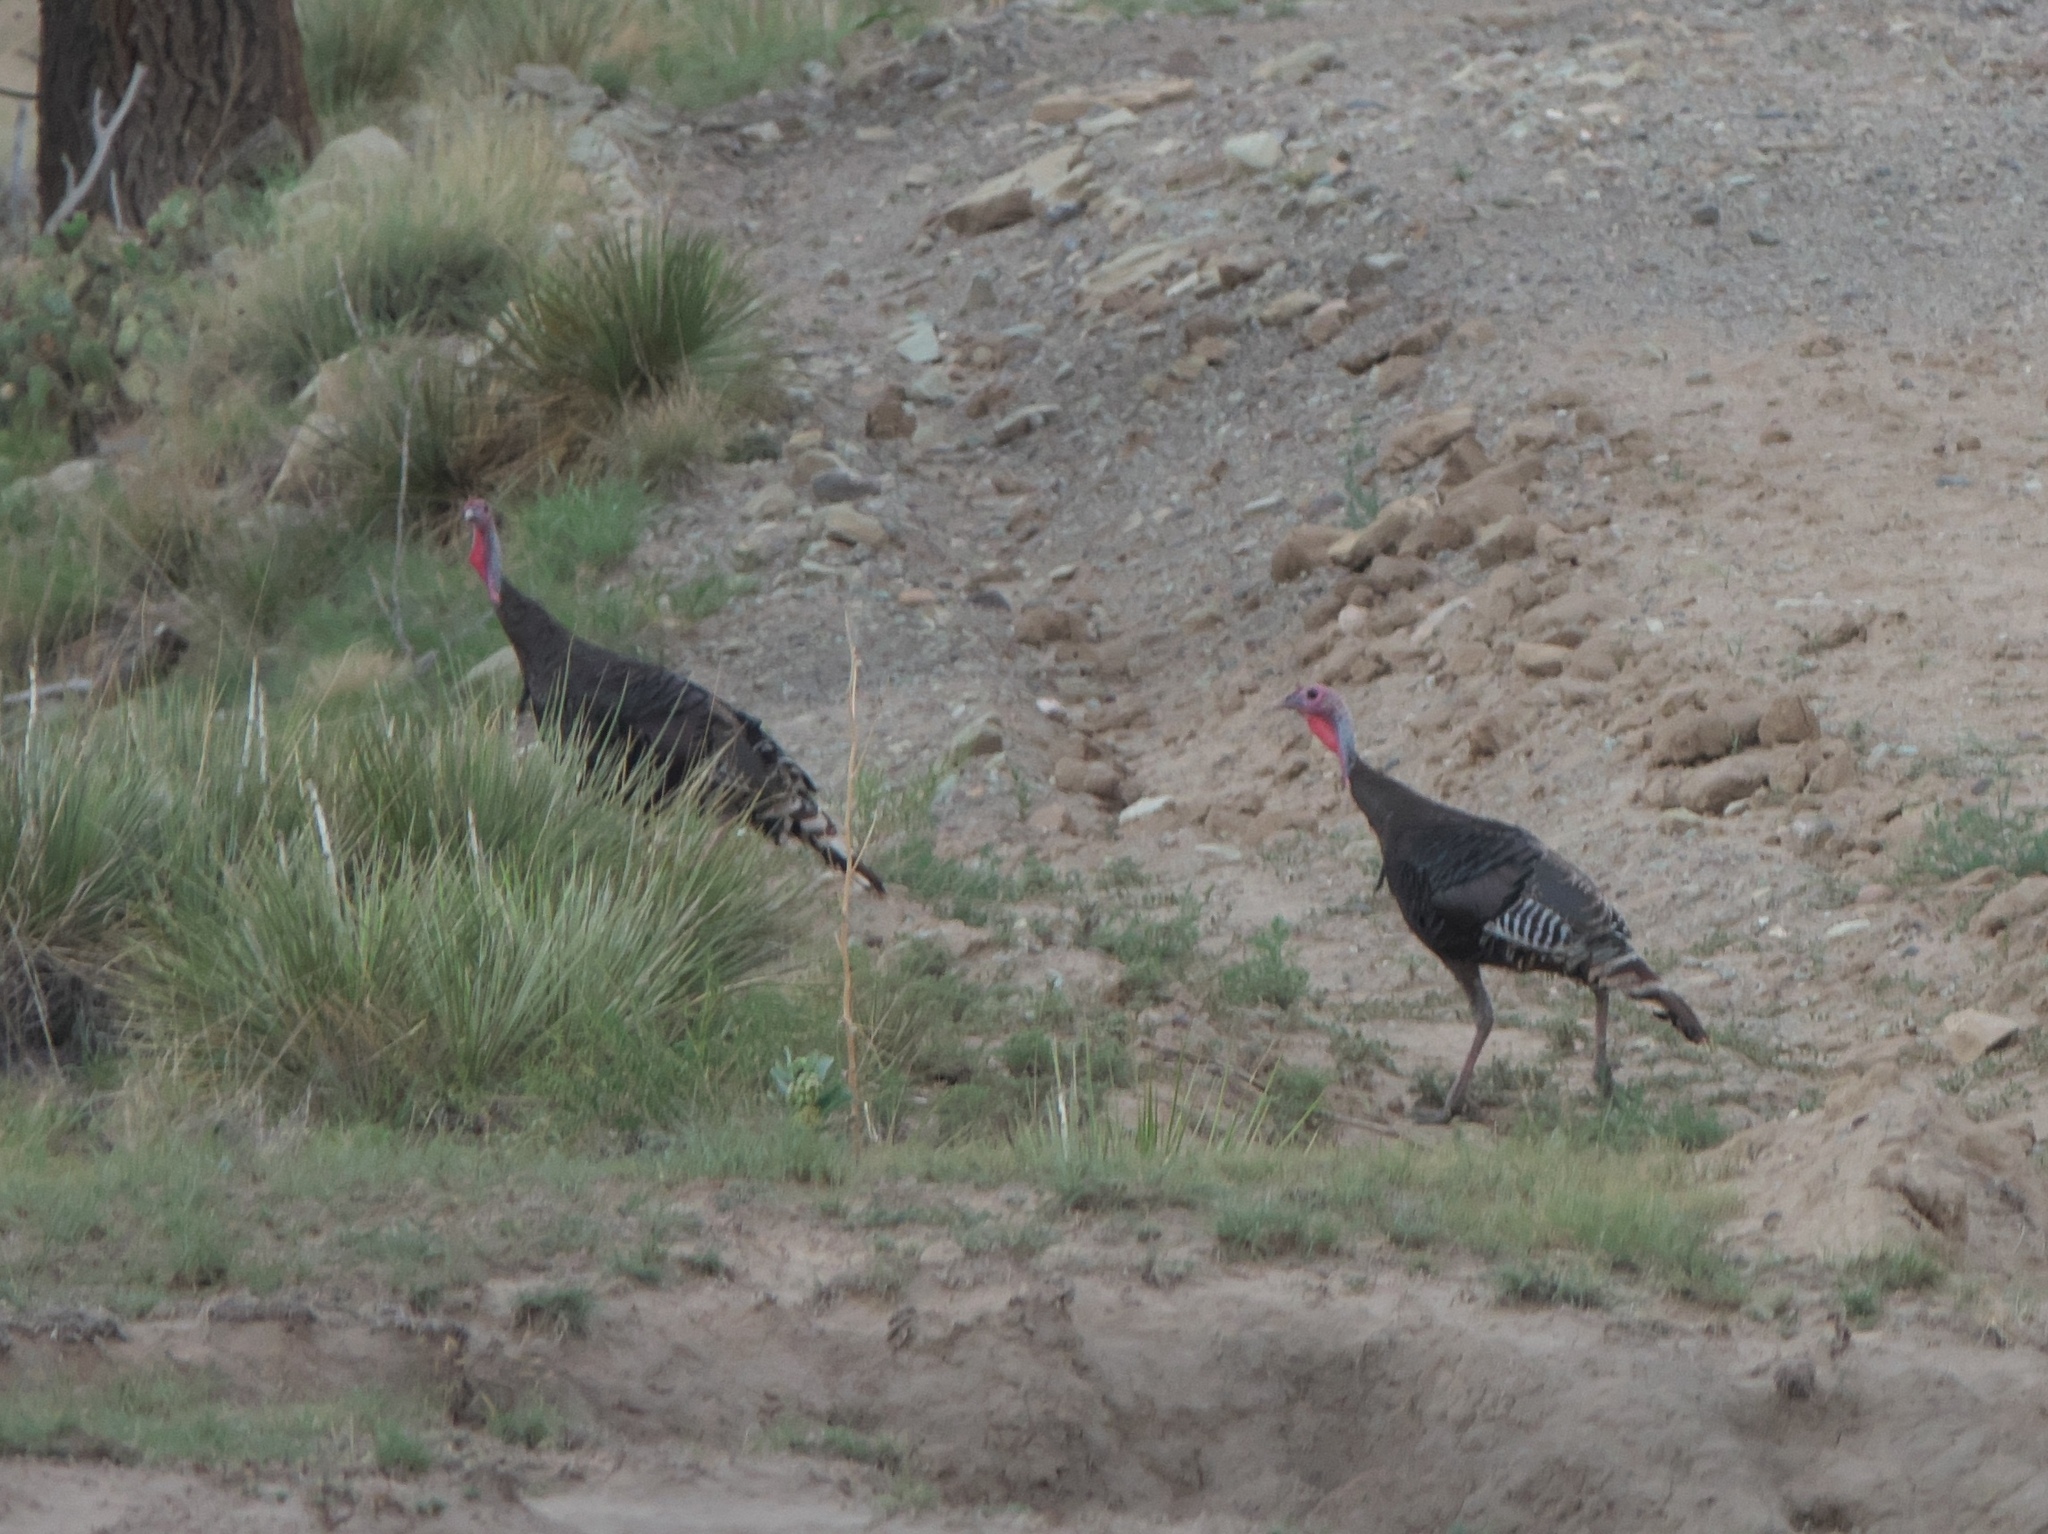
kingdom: Animalia
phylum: Chordata
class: Aves
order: Galliformes
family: Phasianidae
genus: Meleagris
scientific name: Meleagris gallopavo
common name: Wild turkey
